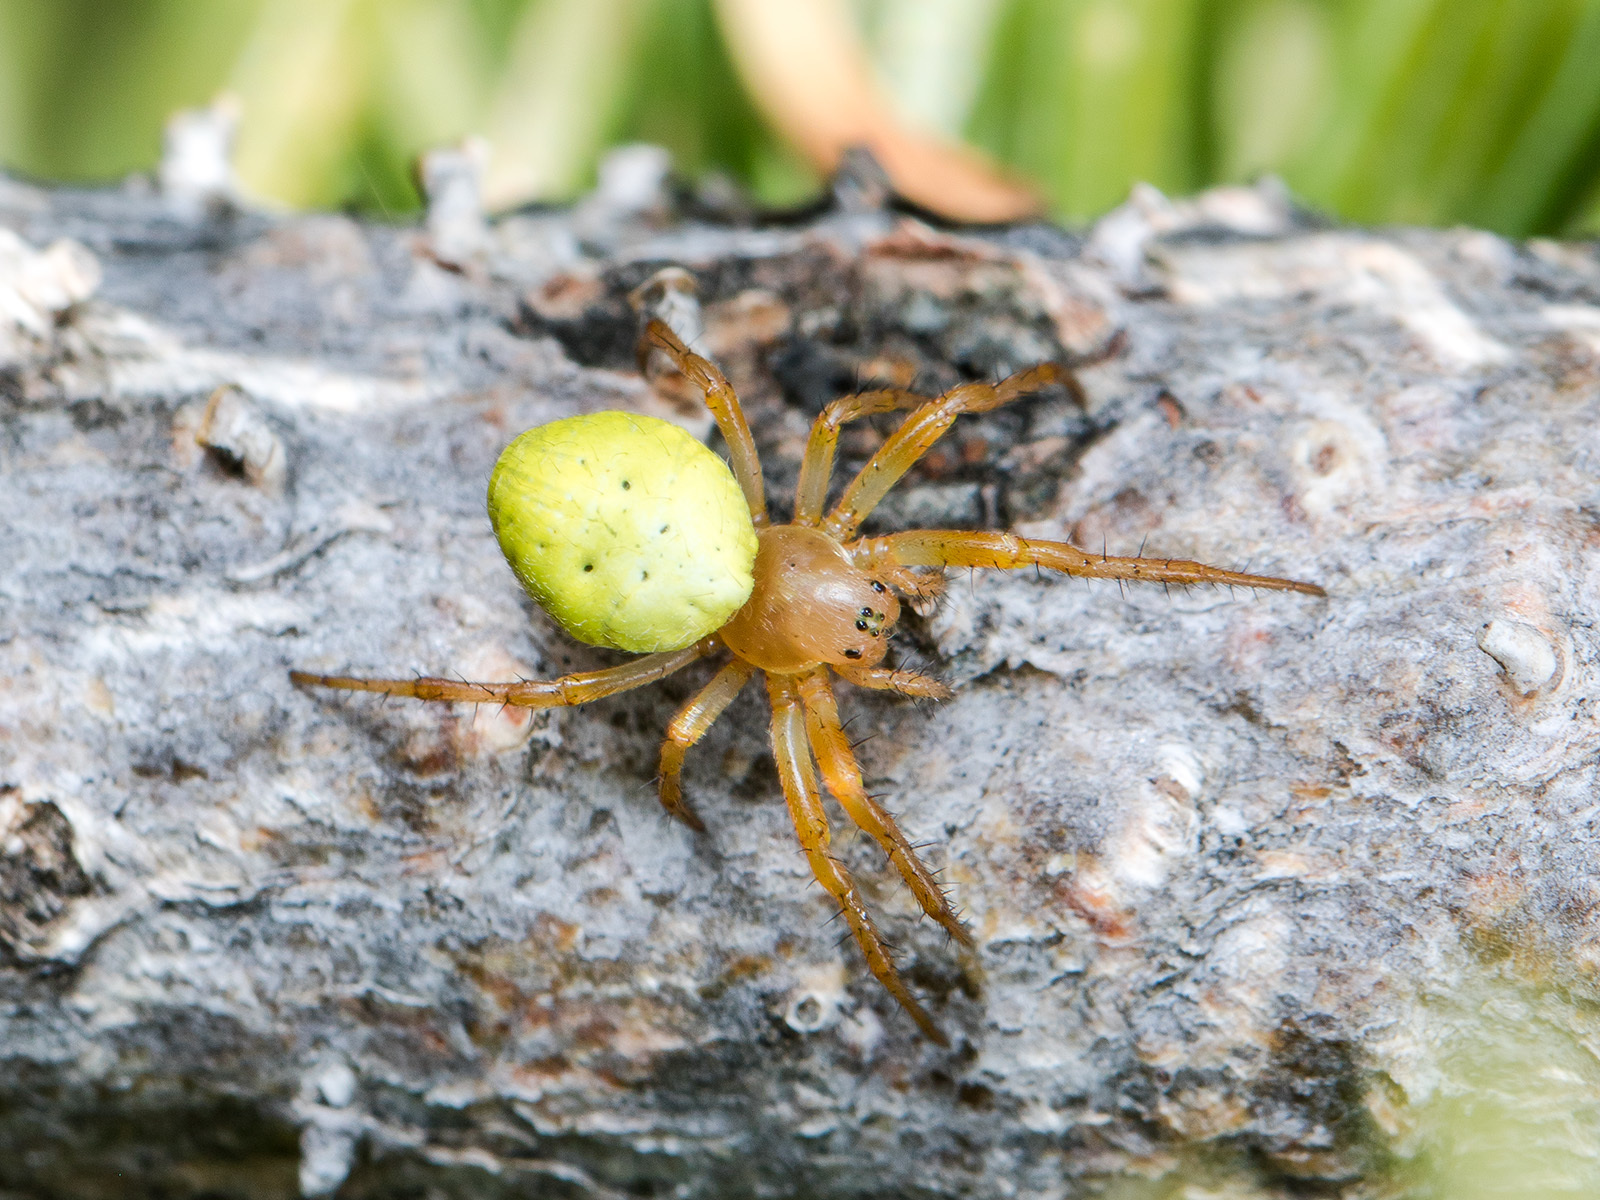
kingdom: Animalia
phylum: Arthropoda
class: Arachnida
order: Araneae
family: Araneidae
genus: Araniella
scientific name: Araniella displicata
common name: Sixspotted orb weaver
